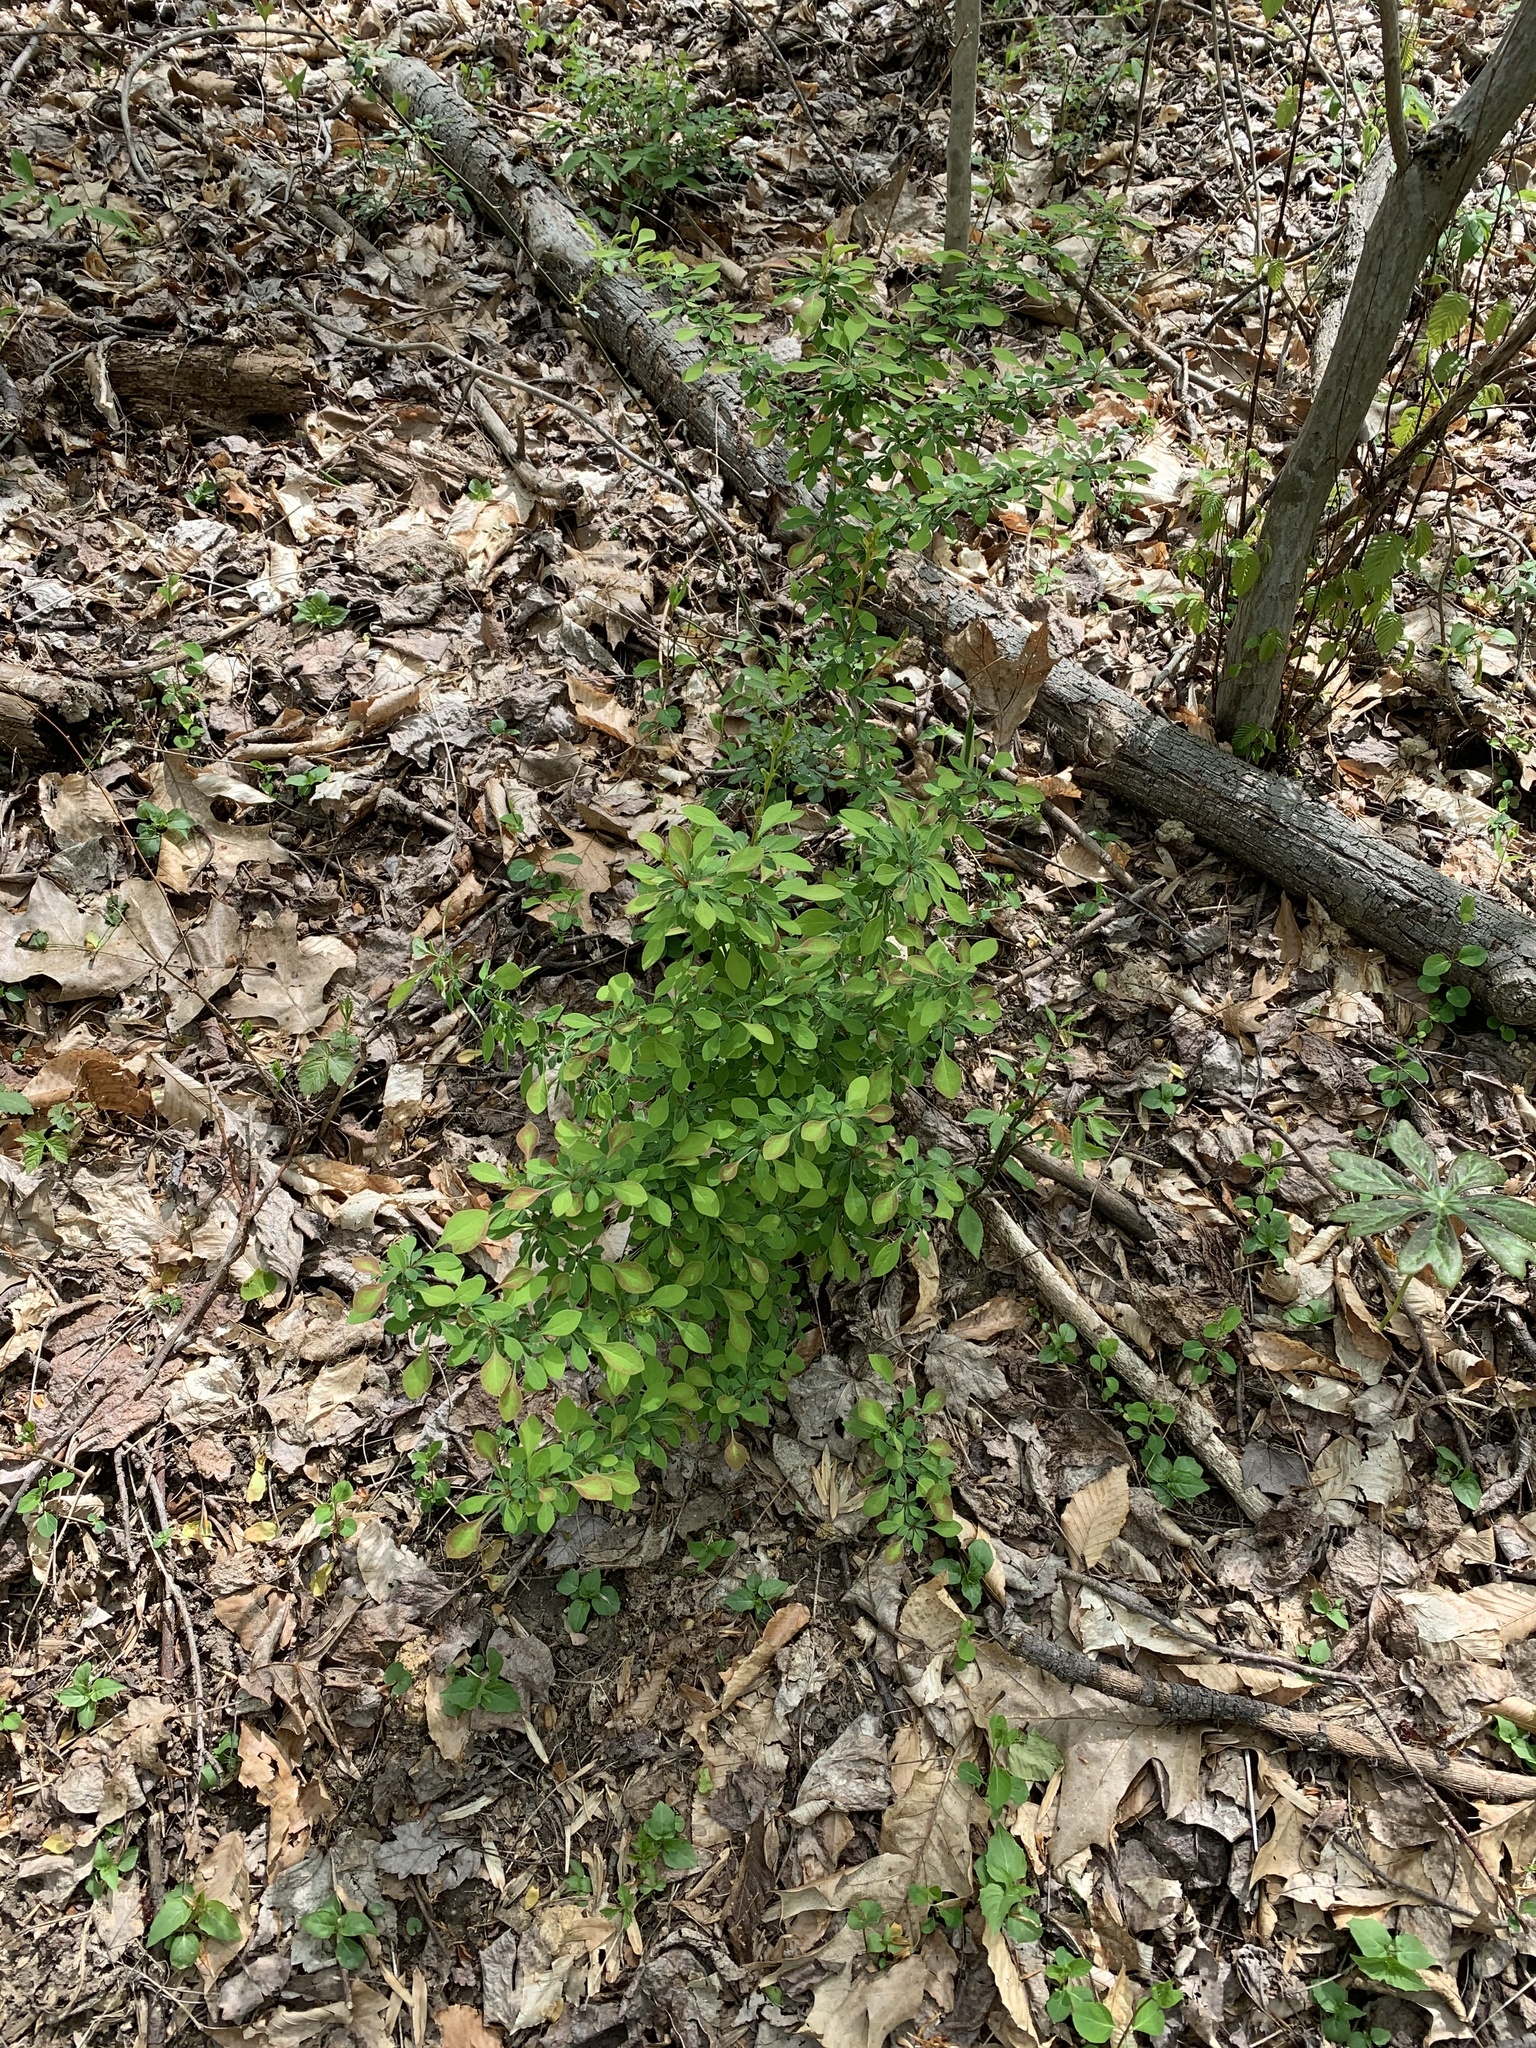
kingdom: Plantae
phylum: Tracheophyta
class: Magnoliopsida
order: Ranunculales
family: Berberidaceae
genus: Berberis
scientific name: Berberis thunbergii
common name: Japanese barberry
